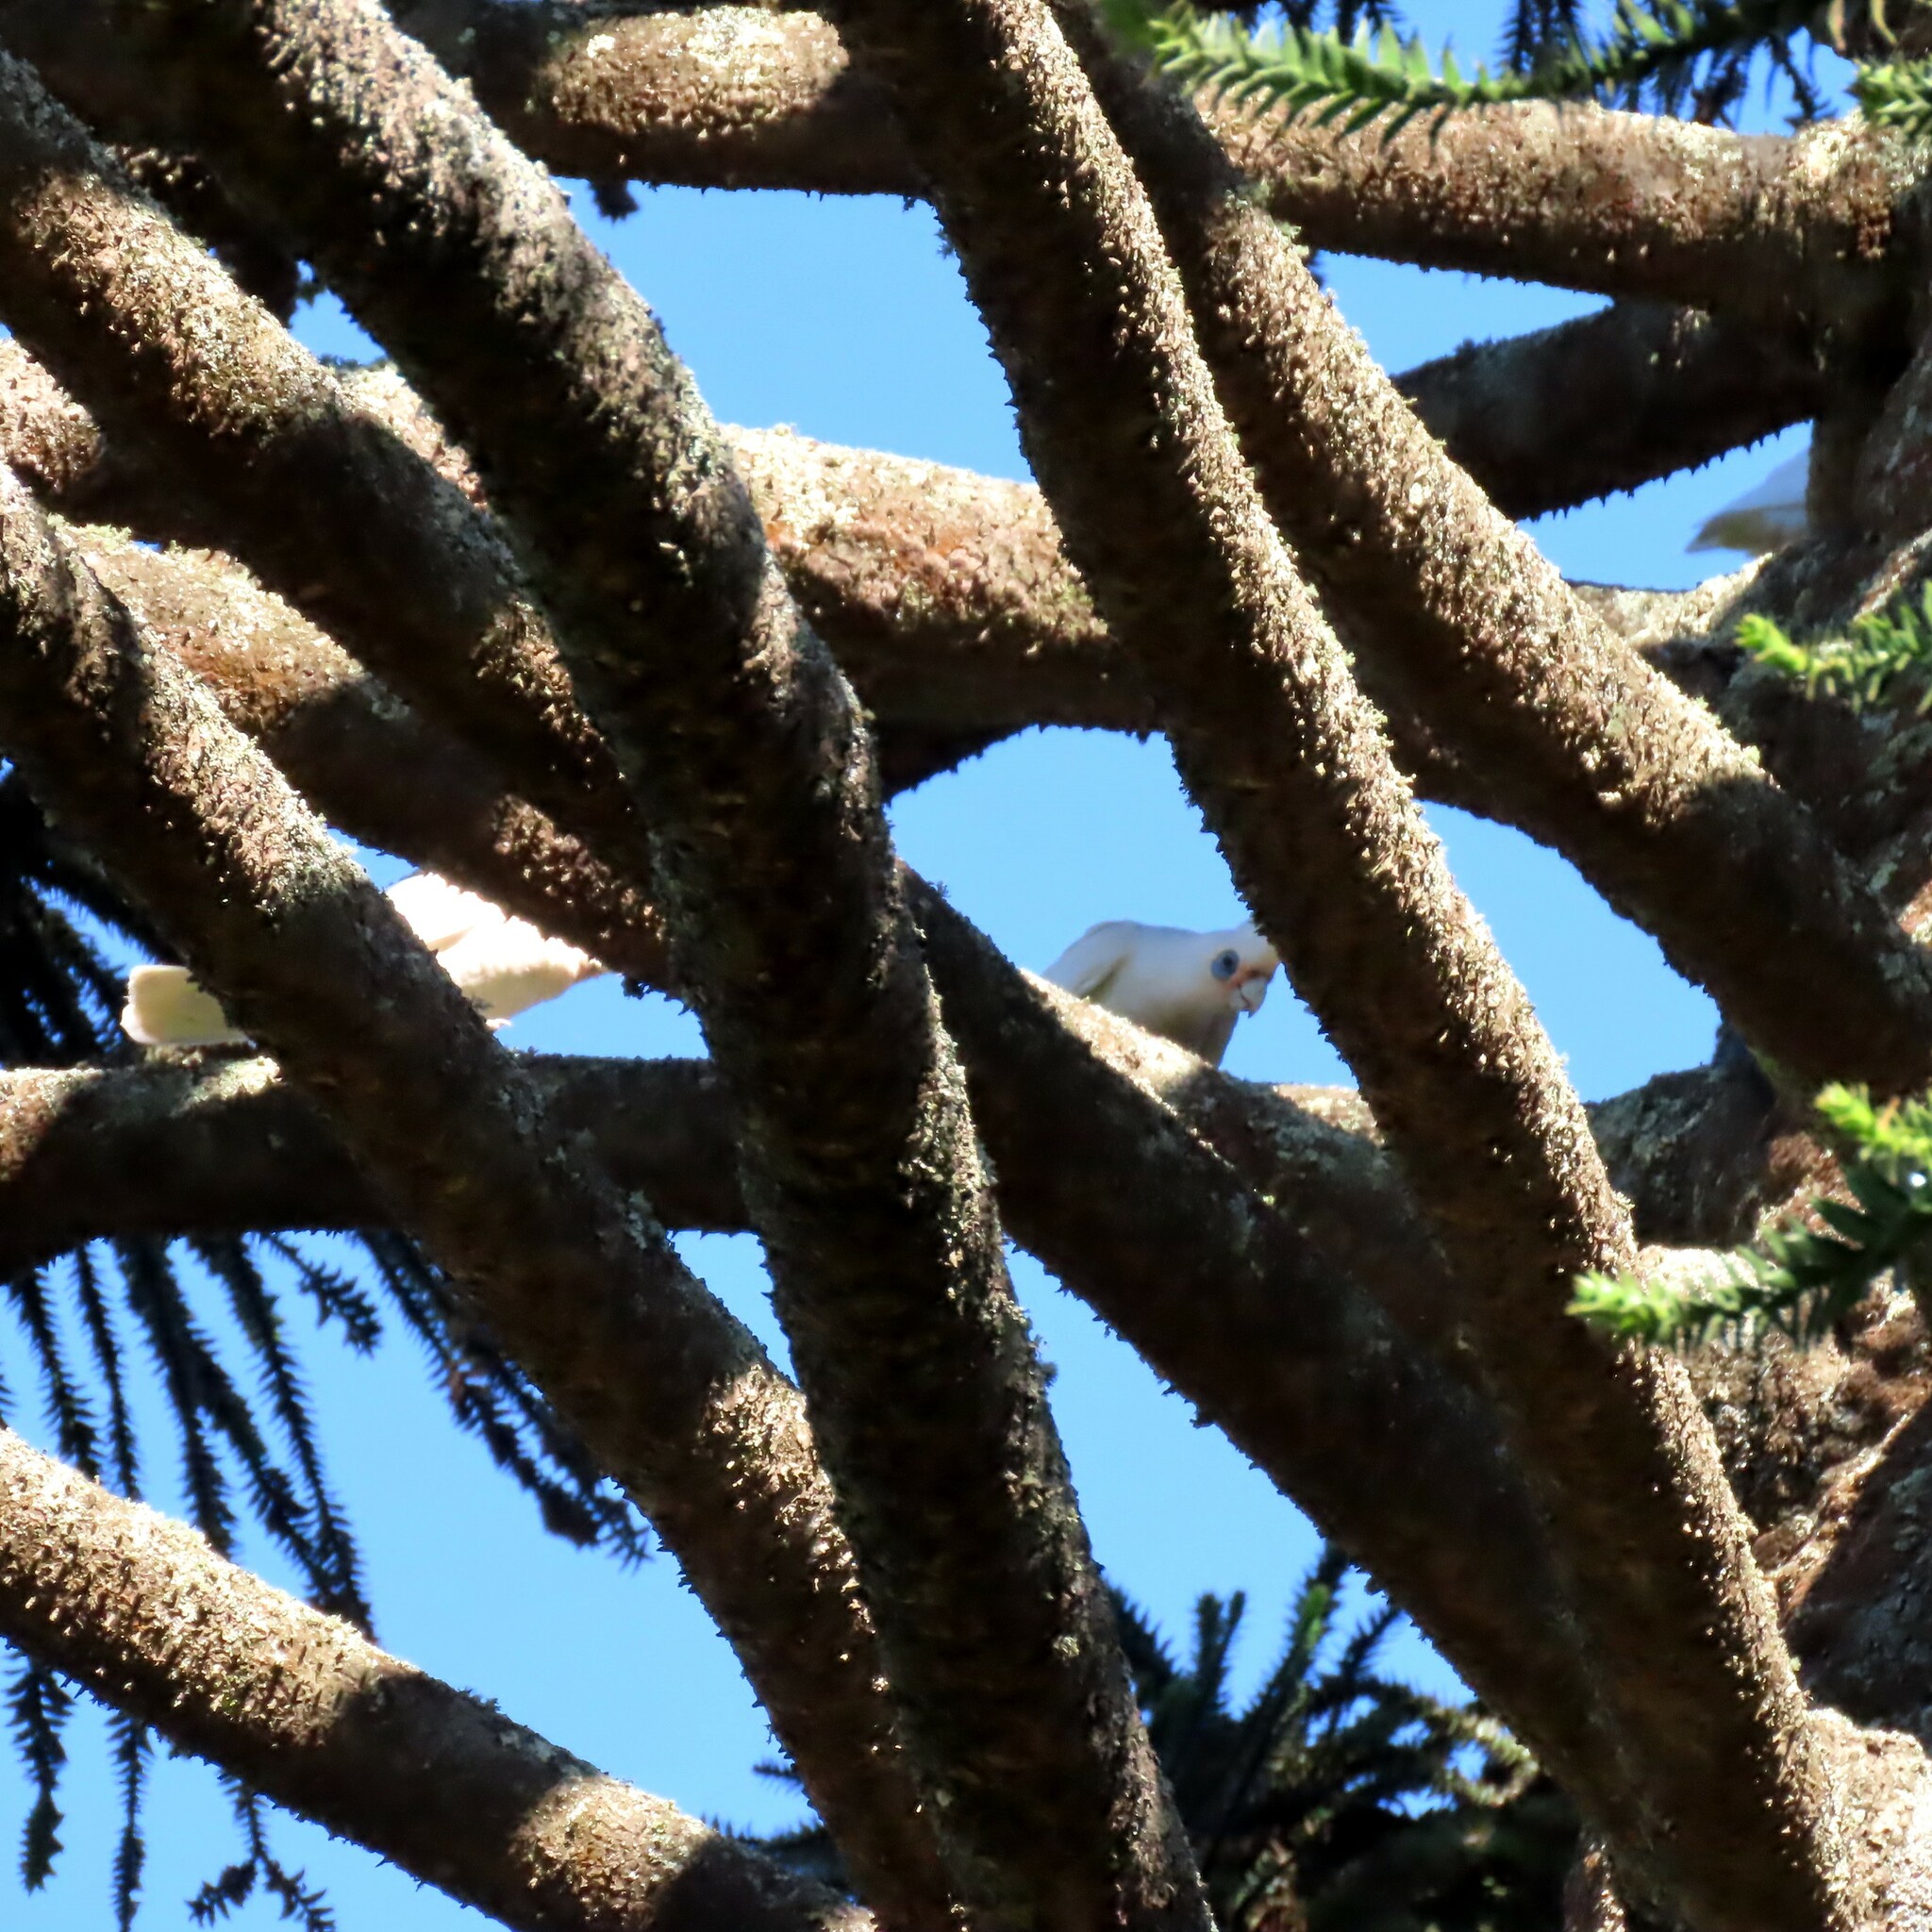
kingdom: Animalia
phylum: Chordata
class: Aves
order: Psittaciformes
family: Psittacidae
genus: Cacatua
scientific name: Cacatua sanguinea
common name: Little corella
